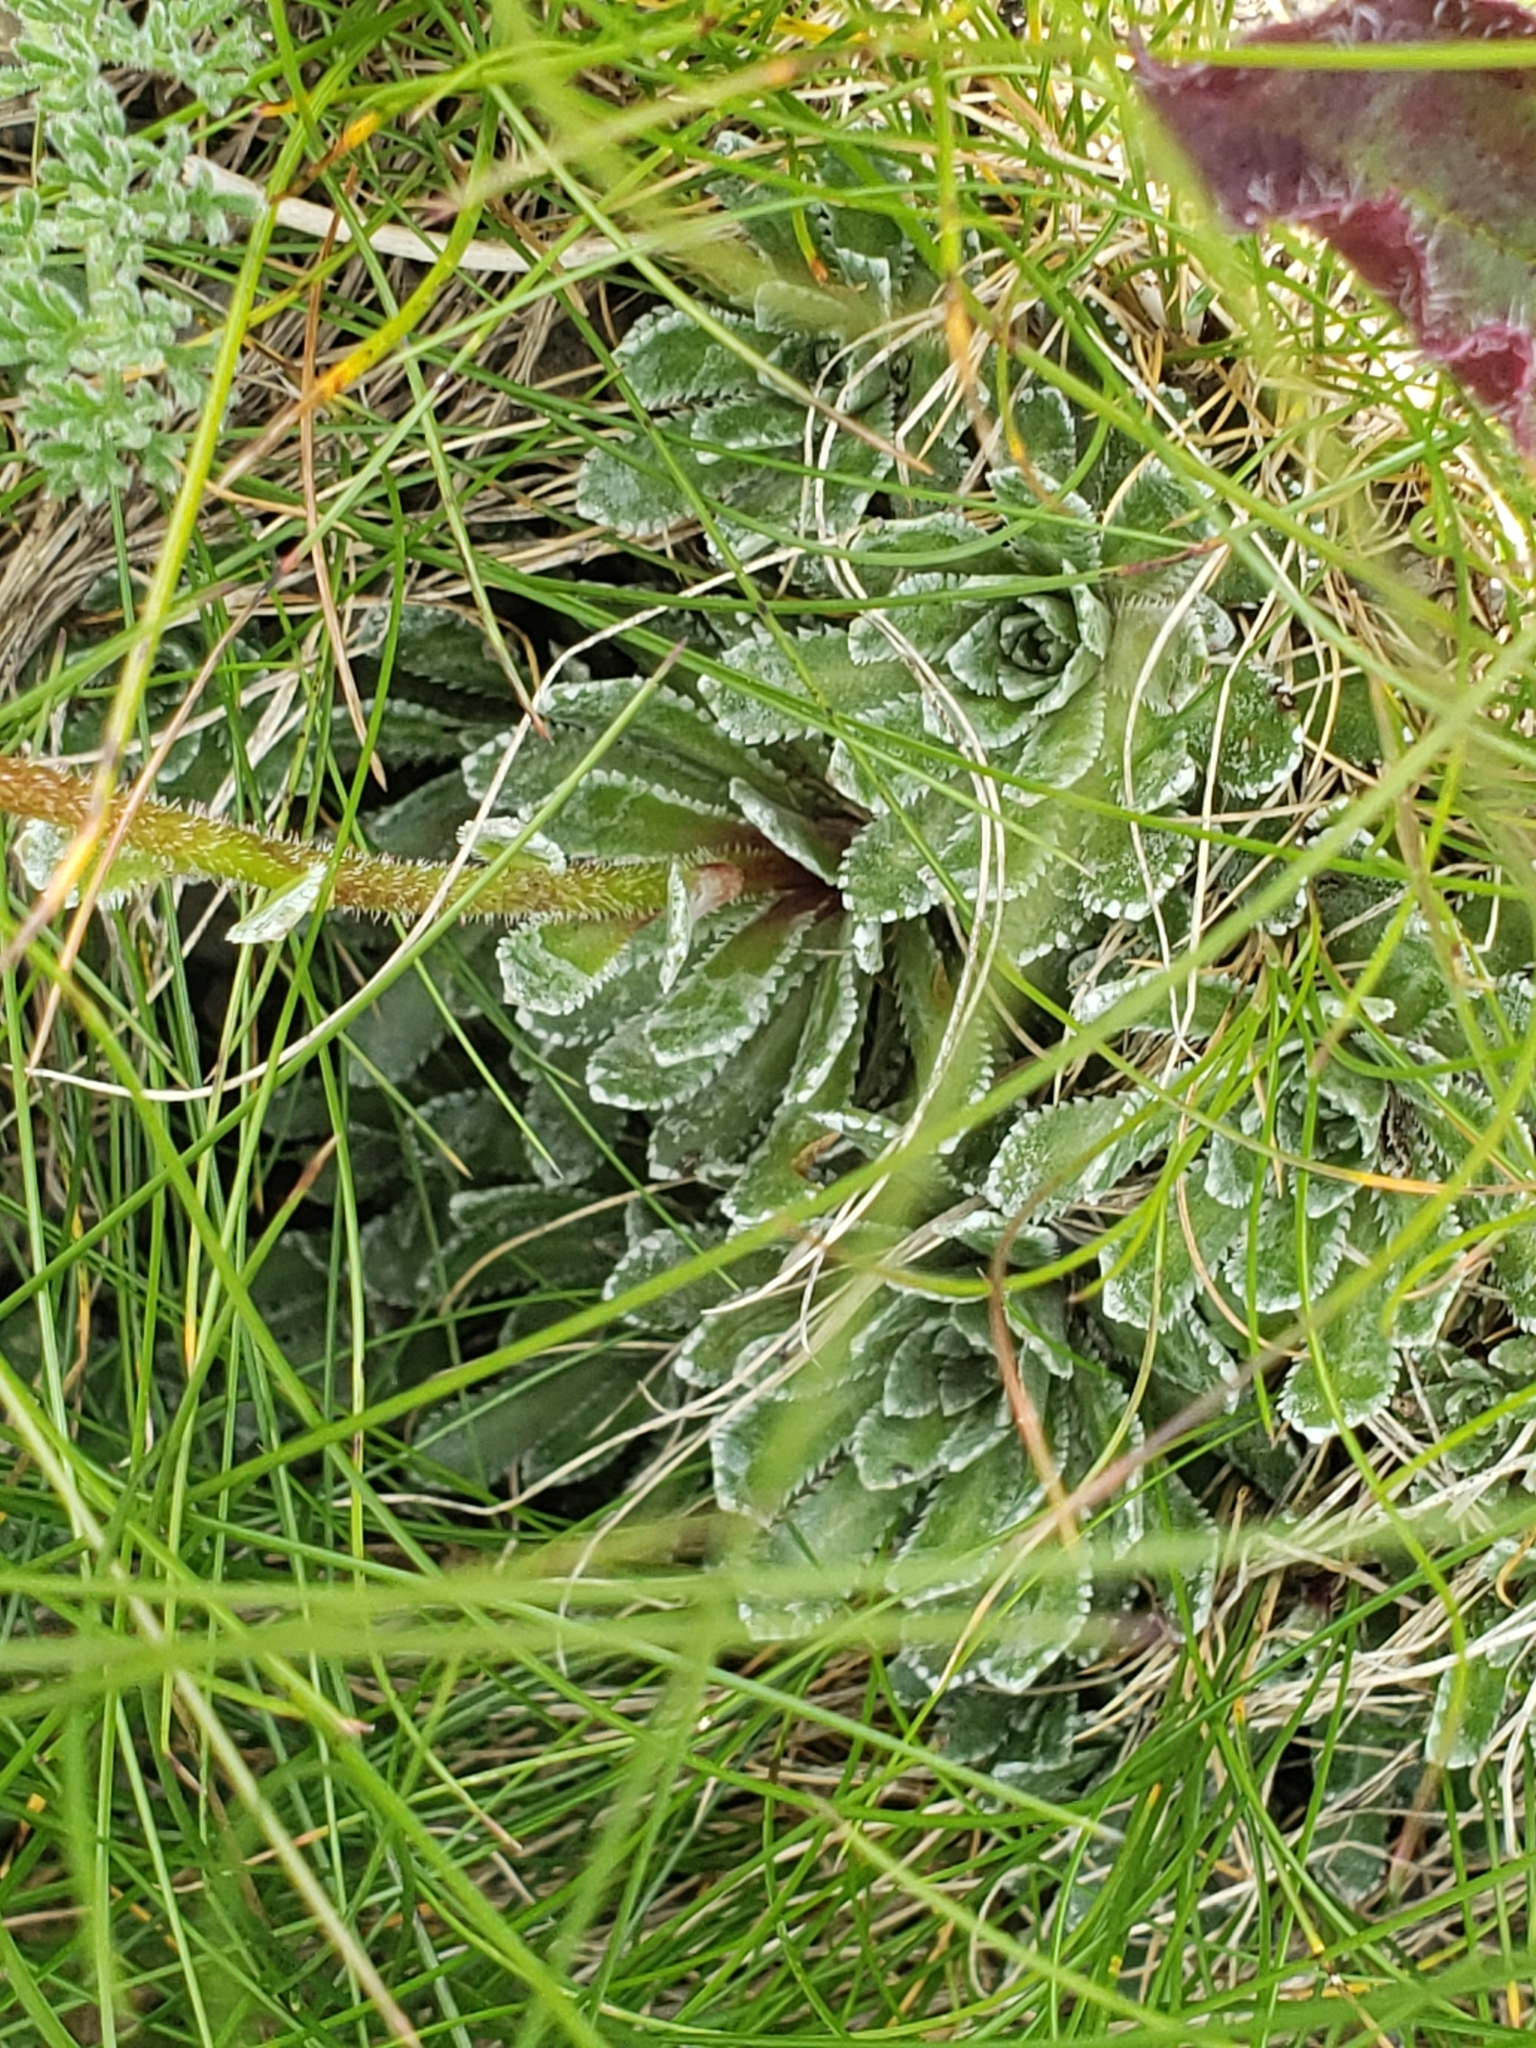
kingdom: Plantae
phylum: Tracheophyta
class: Magnoliopsida
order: Saxifragales
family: Saxifragaceae
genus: Saxifraga
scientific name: Saxifraga paniculata
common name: Livelong saxifrage
